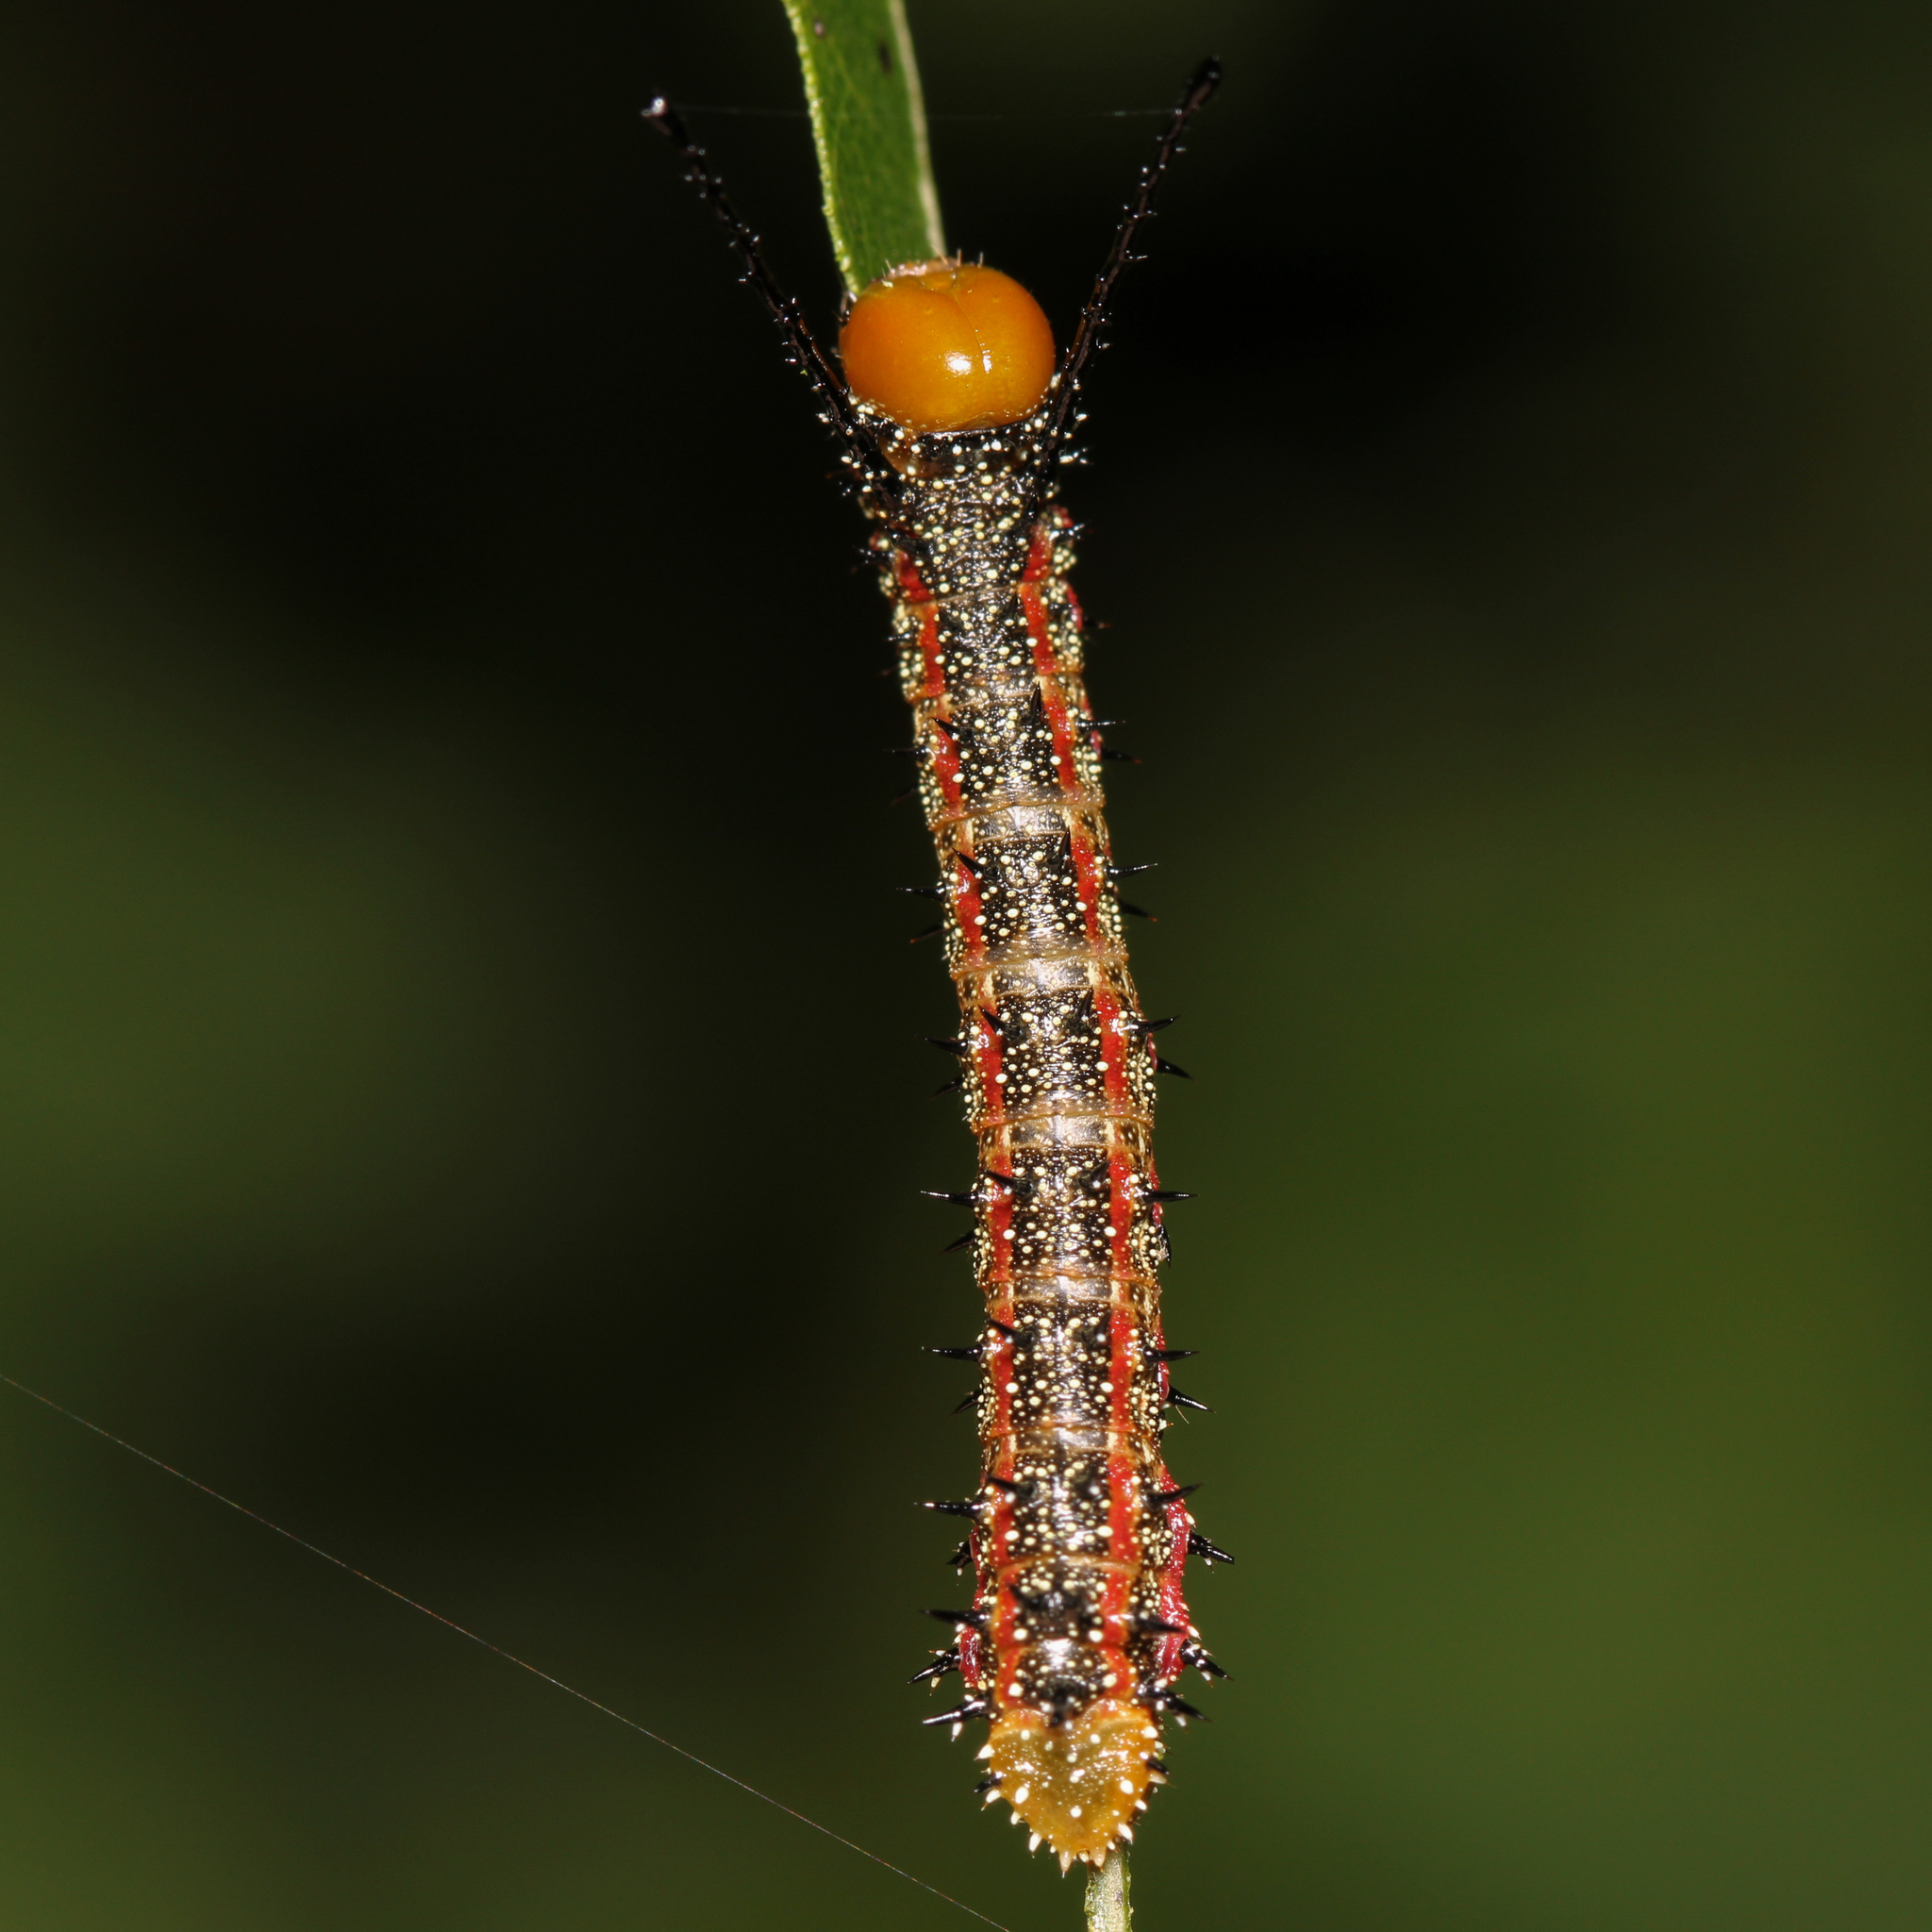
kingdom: Animalia
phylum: Arthropoda
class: Insecta
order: Lepidoptera
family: Saturniidae
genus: Anisota
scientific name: Anisota virginiensis
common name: Pink striped oakworm moth
